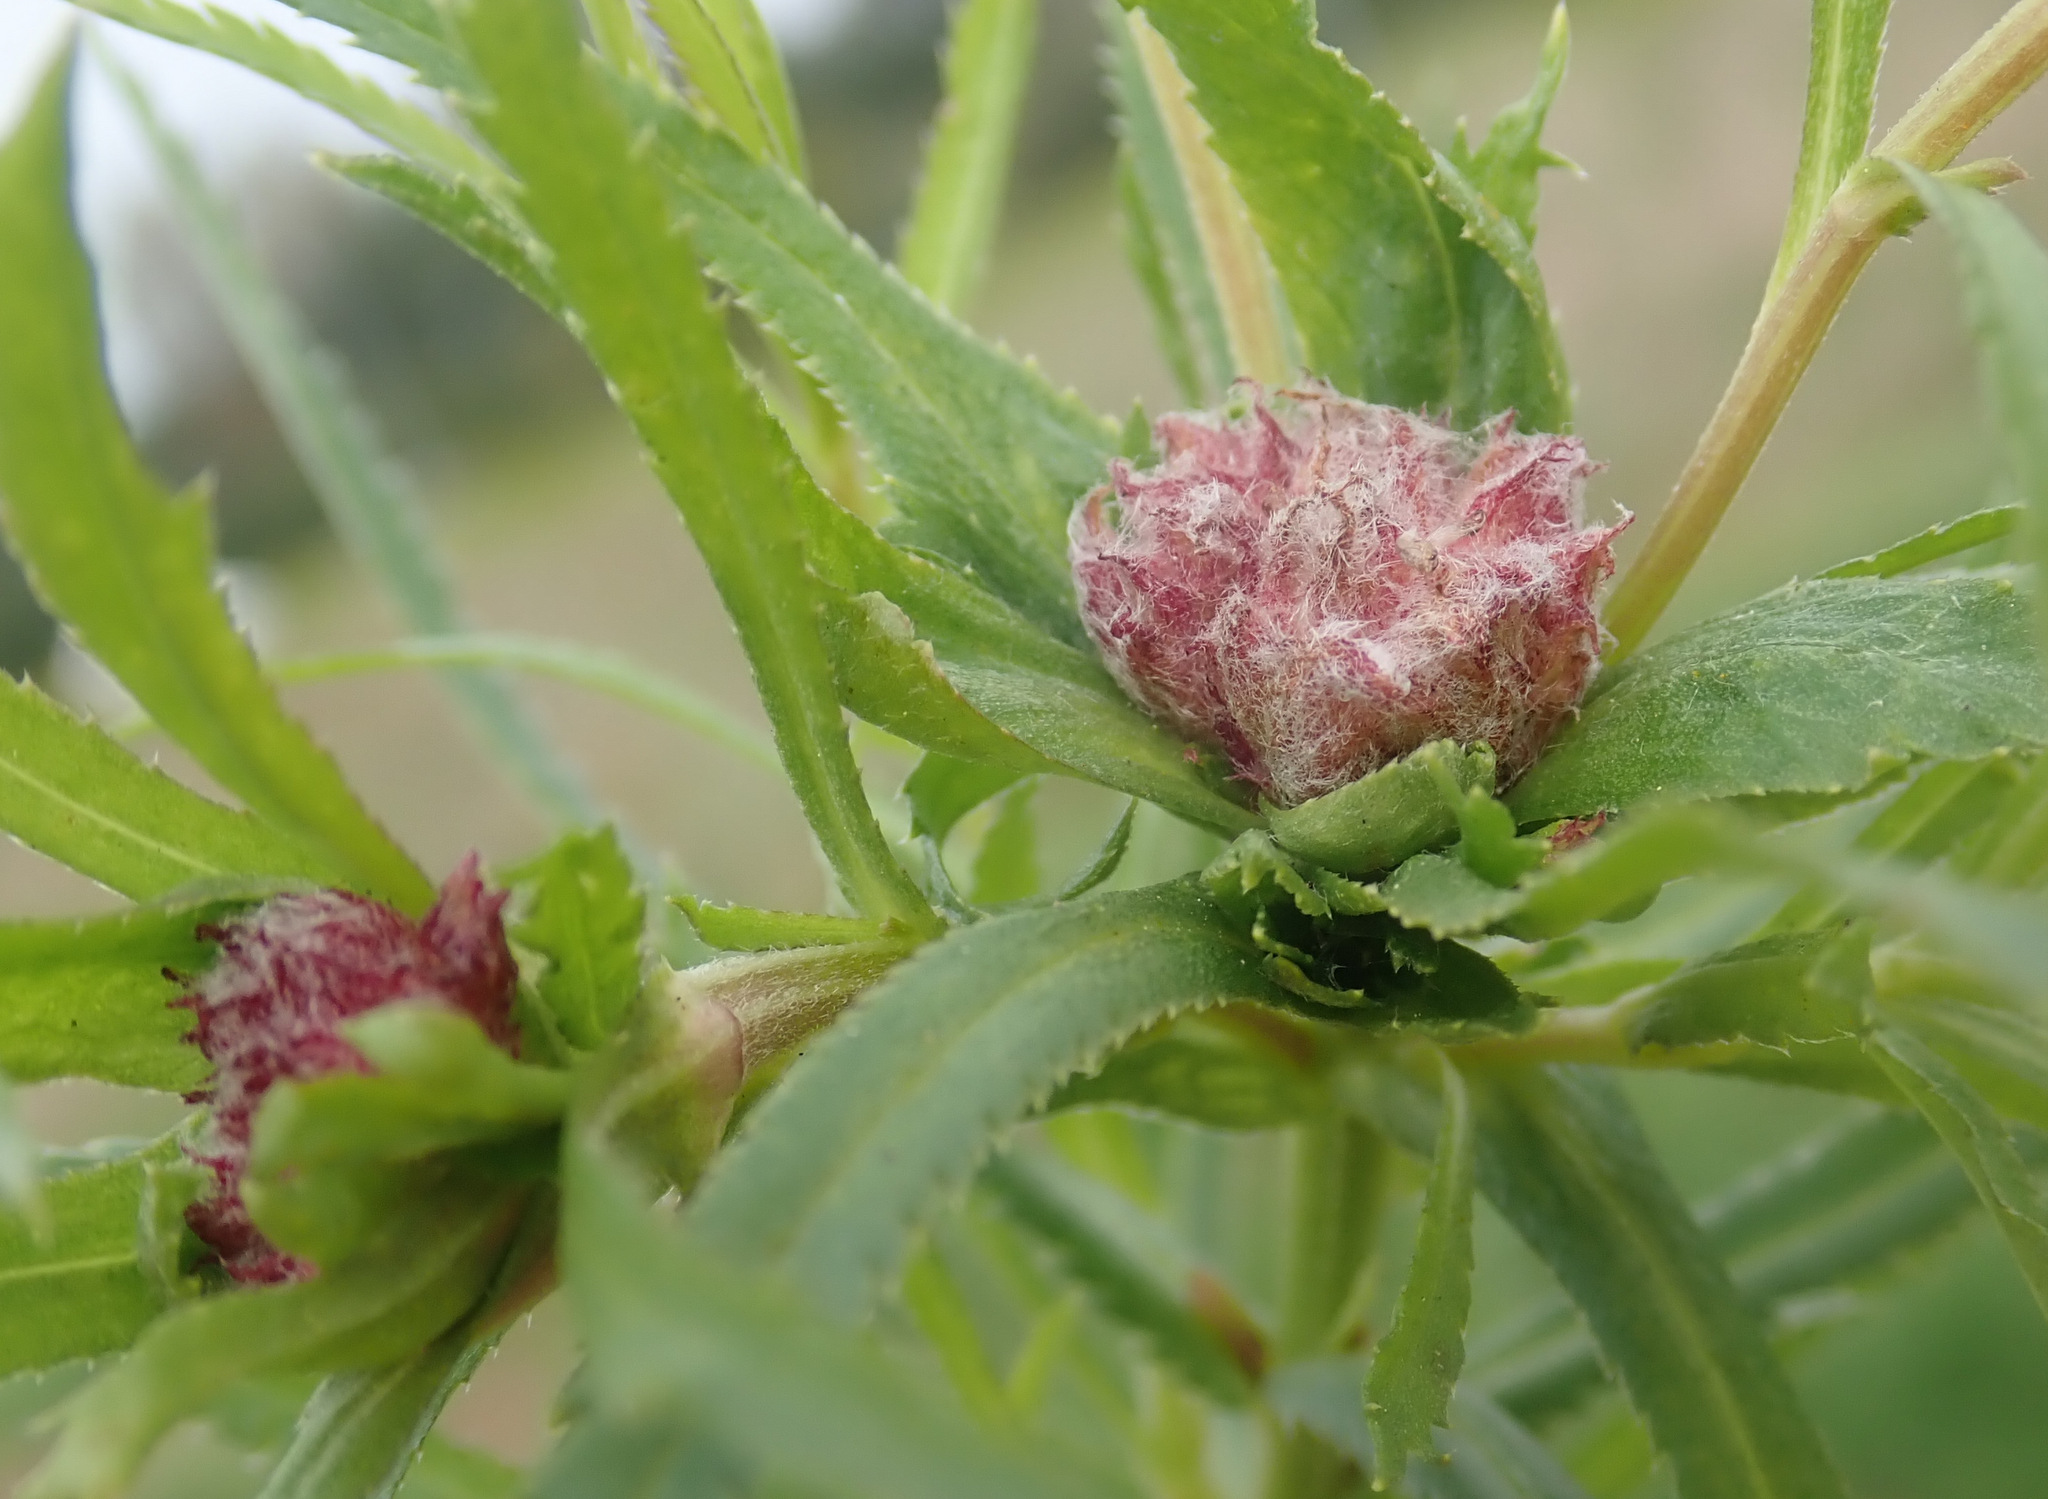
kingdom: Animalia
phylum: Arthropoda
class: Insecta
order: Diptera
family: Cecidomyiidae
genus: Rhopalomyia
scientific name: Rhopalomyia ptarmicae
